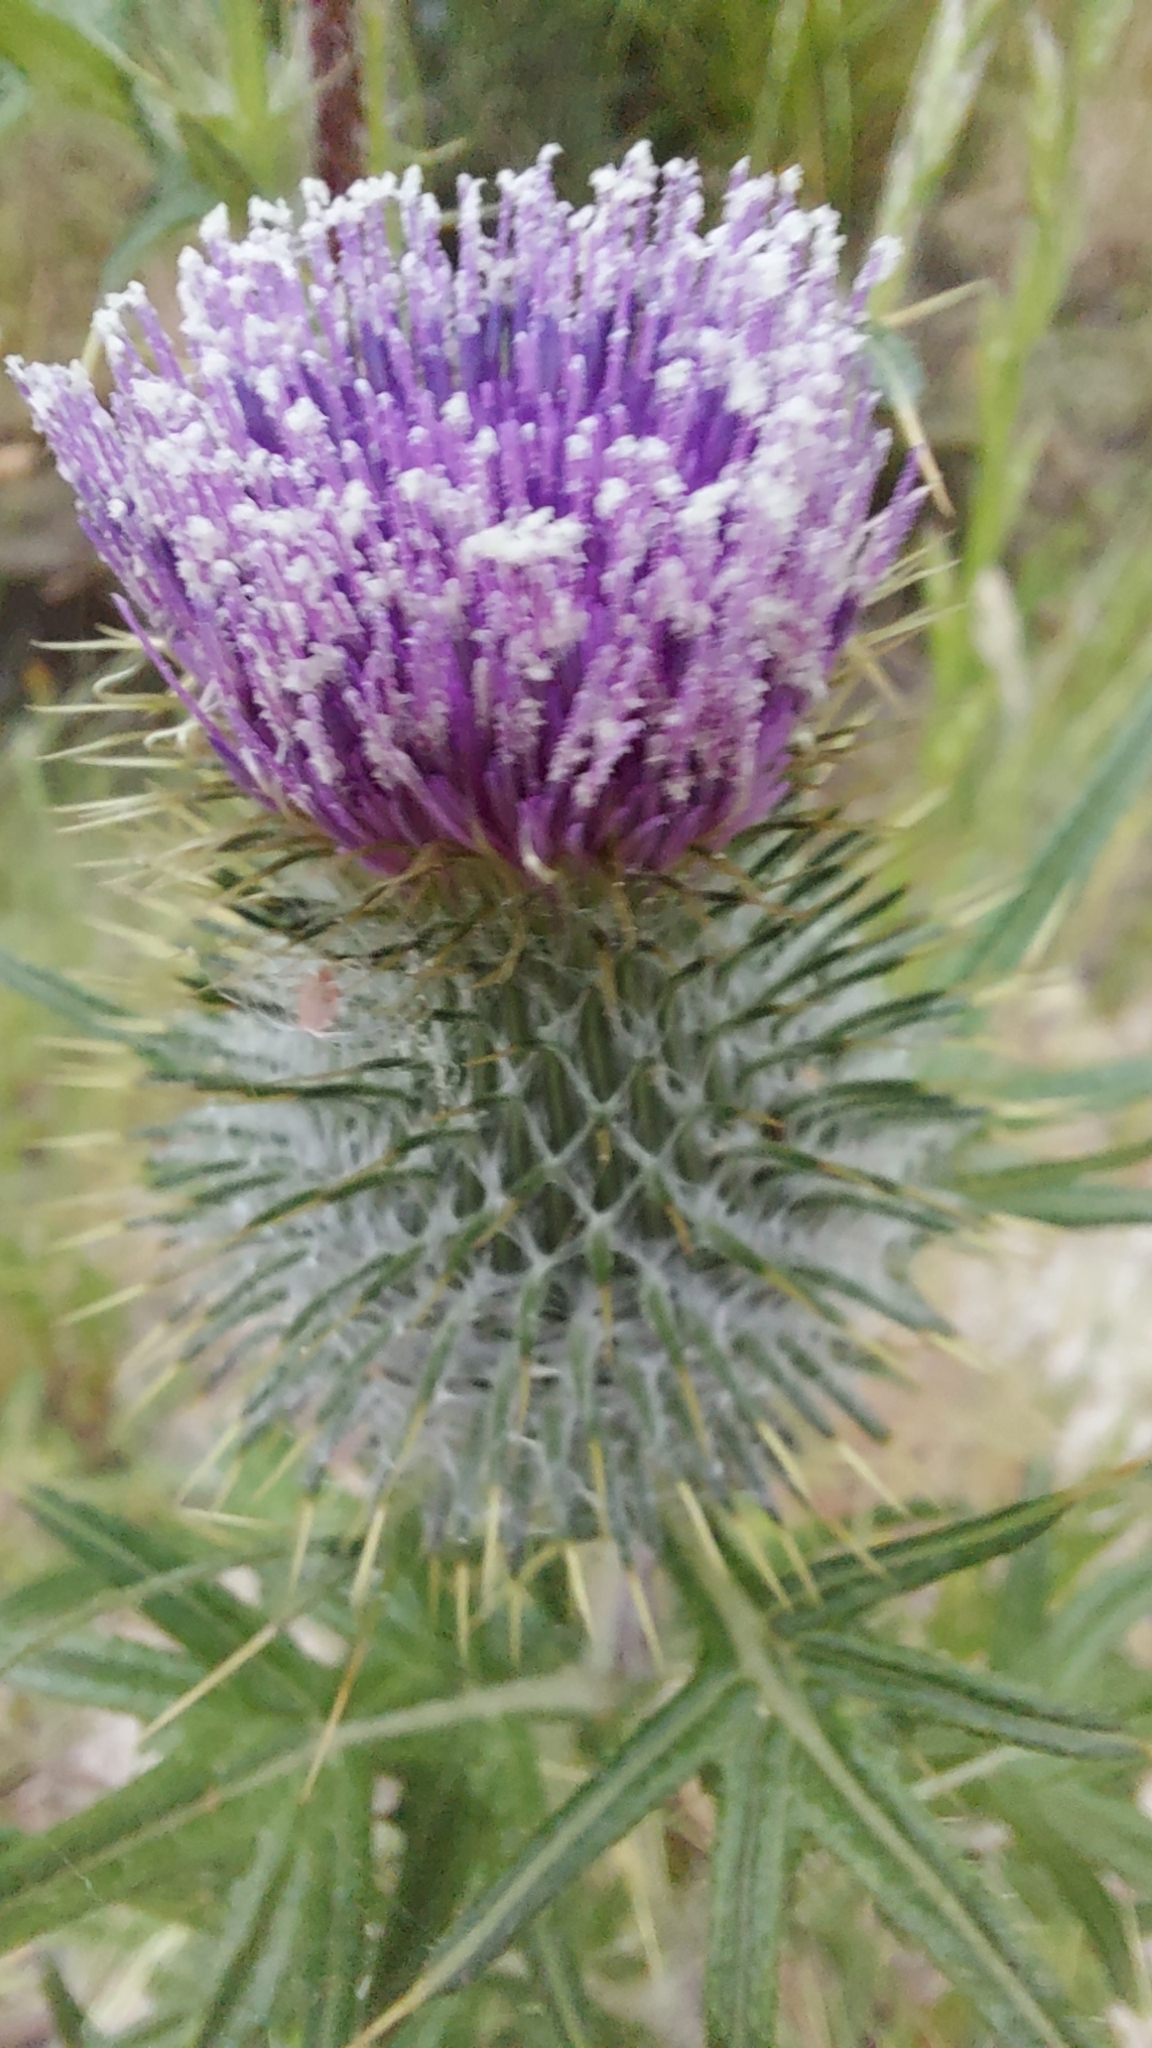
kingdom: Plantae
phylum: Tracheophyta
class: Magnoliopsida
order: Asterales
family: Asteraceae
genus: Cirsium
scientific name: Cirsium vulgare
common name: Bull thistle
